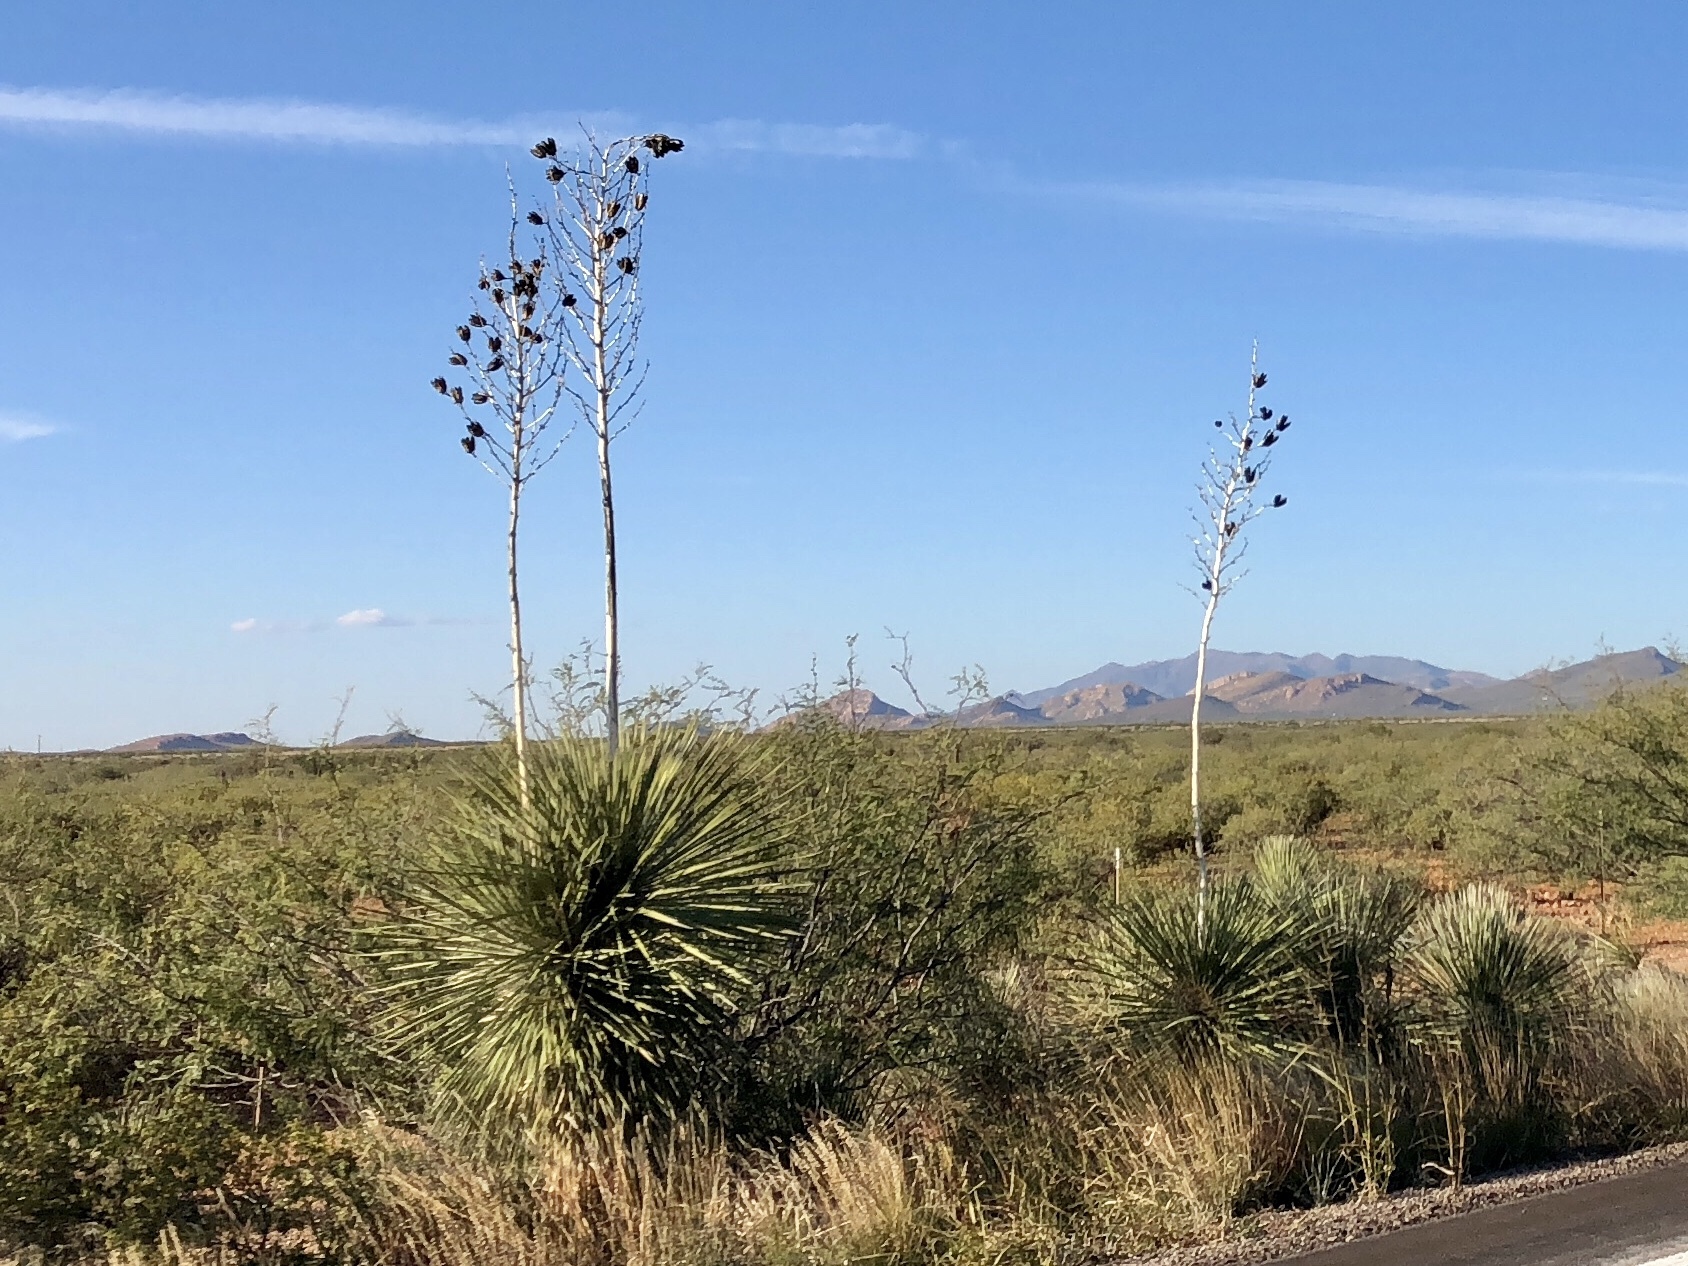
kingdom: Plantae
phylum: Tracheophyta
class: Liliopsida
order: Asparagales
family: Asparagaceae
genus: Yucca
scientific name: Yucca elata
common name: Palmella
